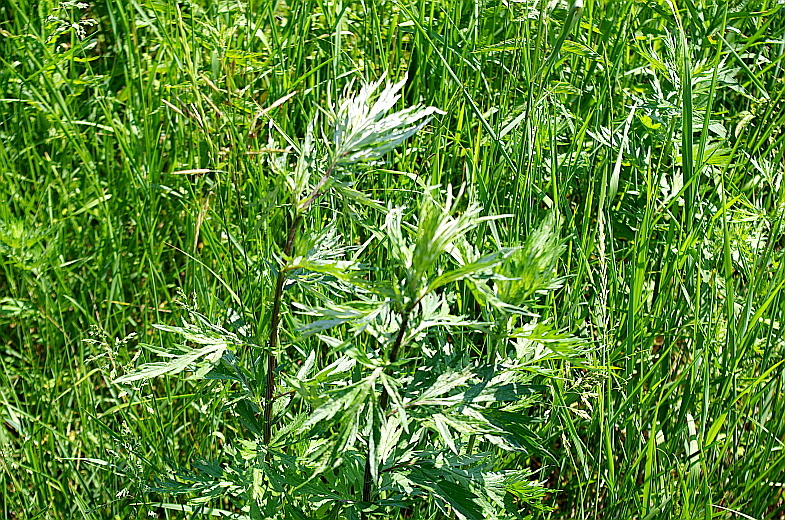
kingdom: Plantae
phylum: Tracheophyta
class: Magnoliopsida
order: Asterales
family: Asteraceae
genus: Artemisia
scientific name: Artemisia vulgaris
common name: Mugwort
